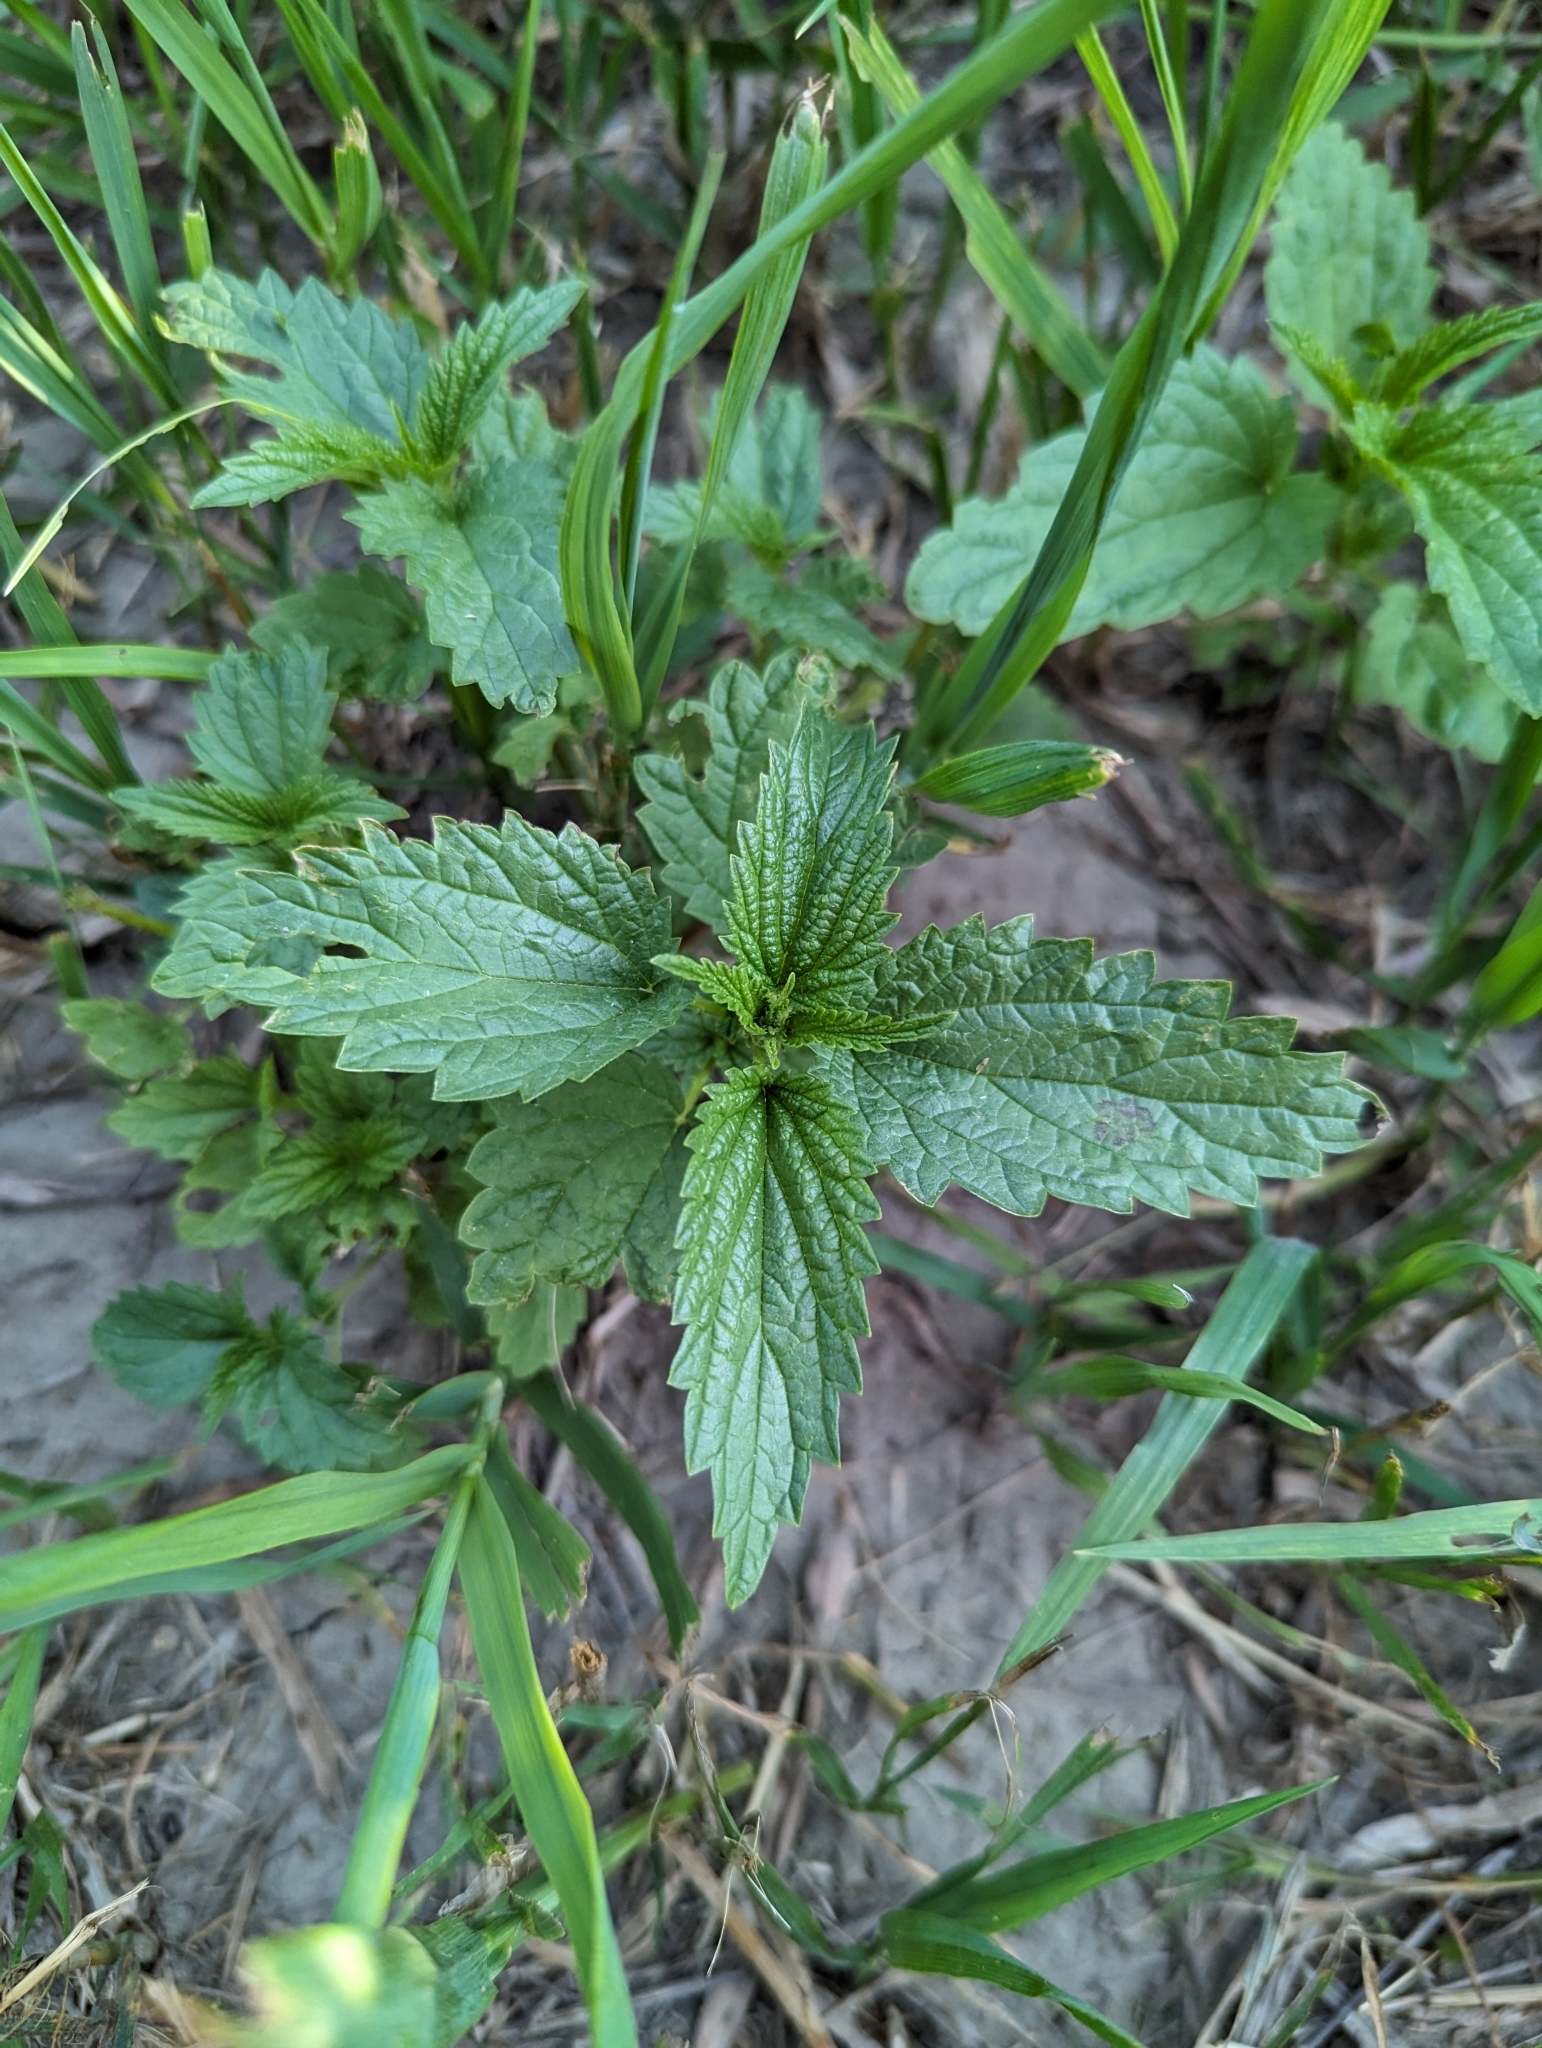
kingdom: Plantae
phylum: Tracheophyta
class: Magnoliopsida
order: Rosales
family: Urticaceae
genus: Urtica
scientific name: Urtica gracilis
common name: Slender stinging nettle
